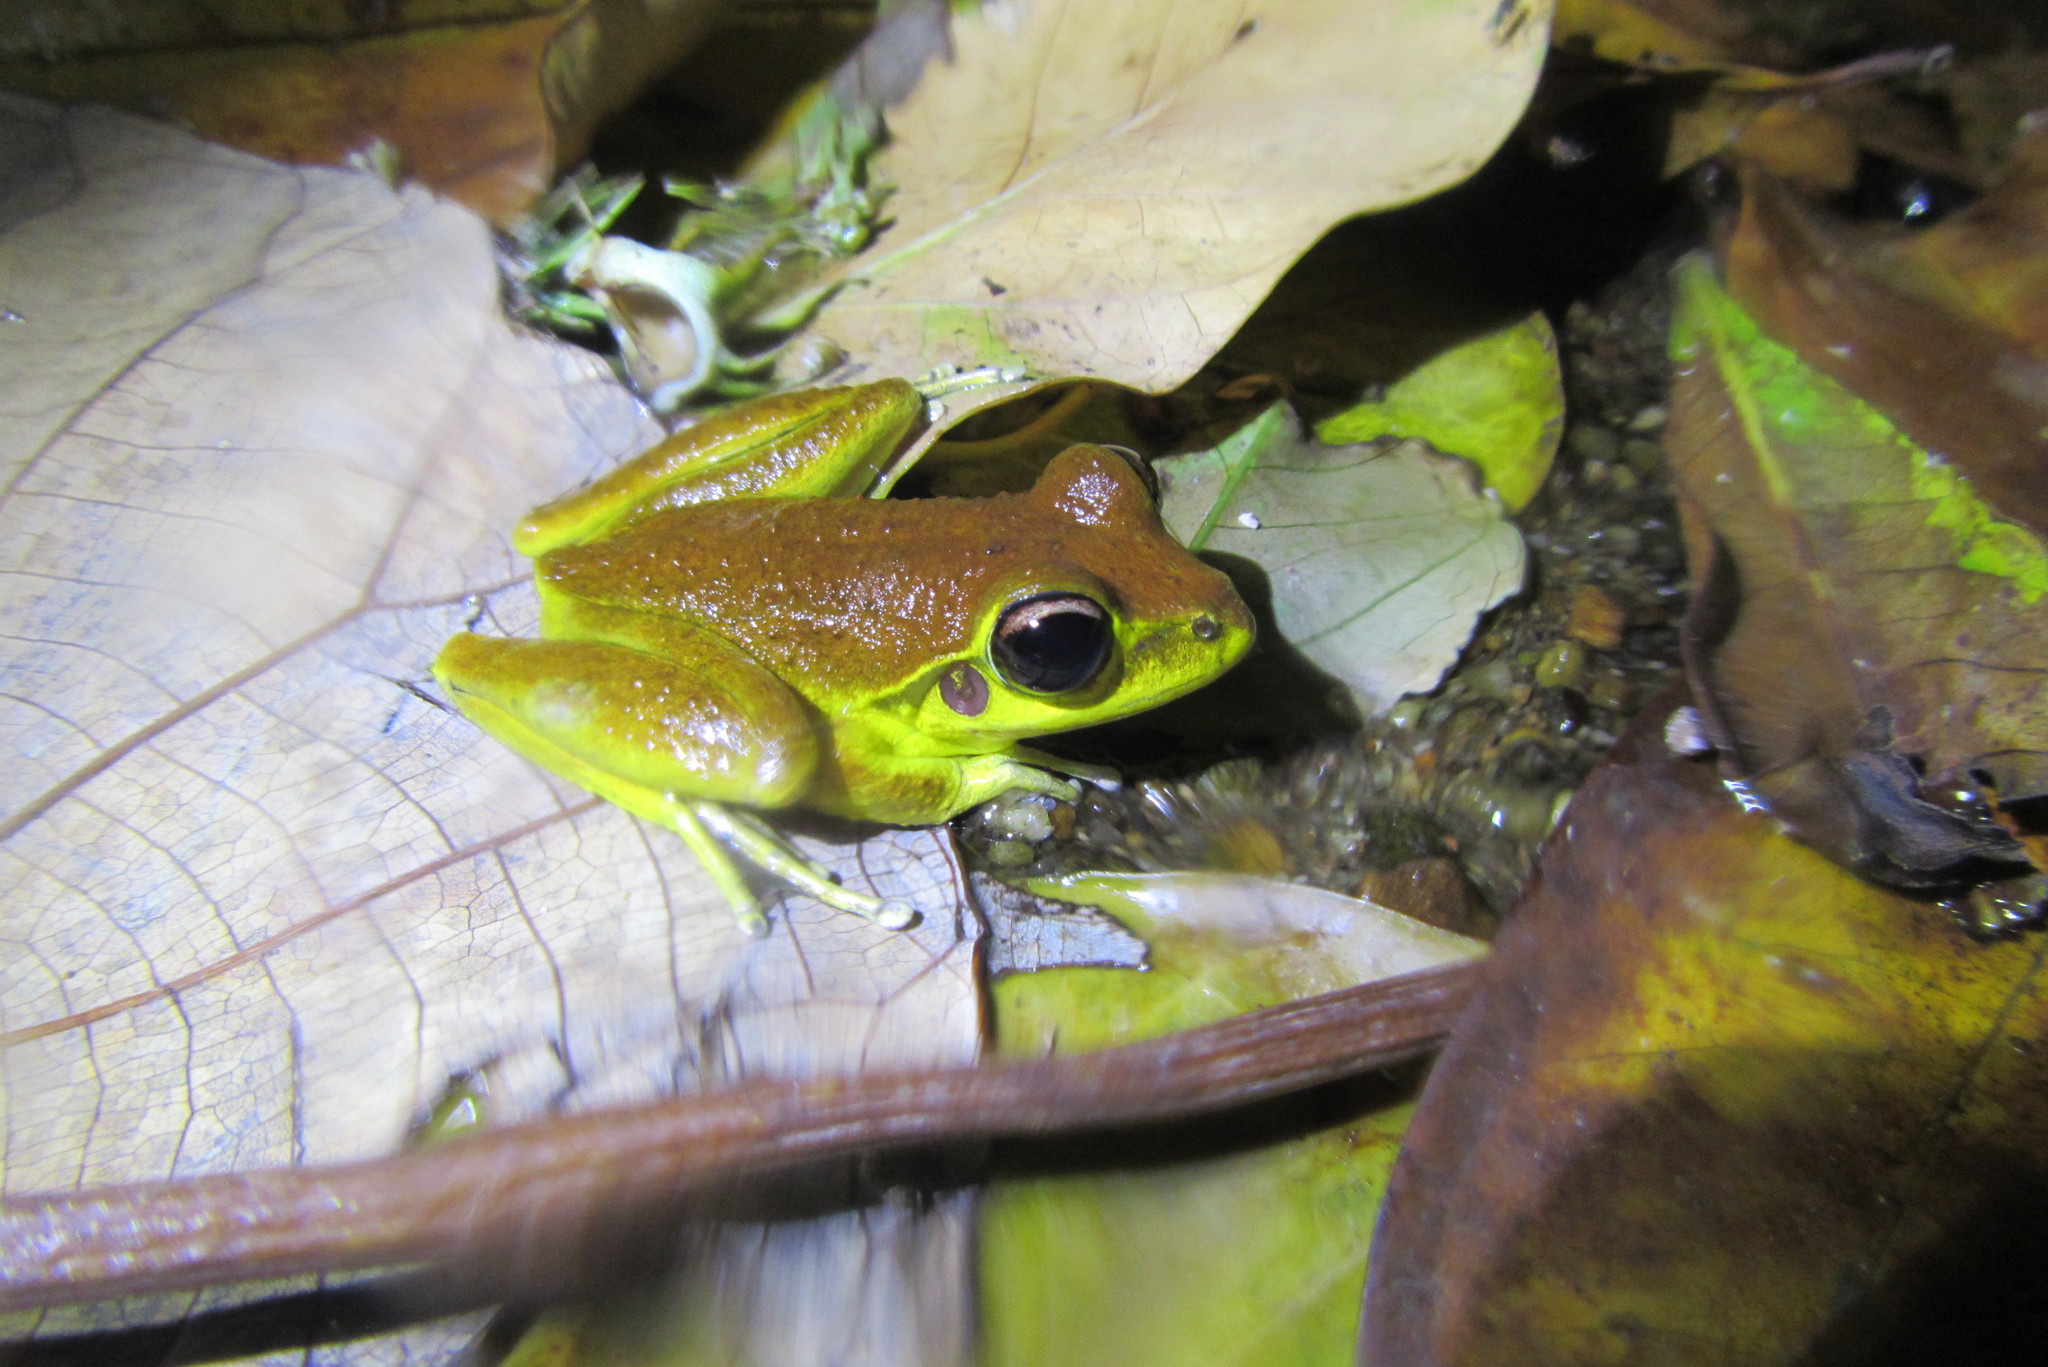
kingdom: Animalia
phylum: Chordata
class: Amphibia
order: Anura
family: Pelodryadidae
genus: Ranoidea
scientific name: Ranoidea jungguy
